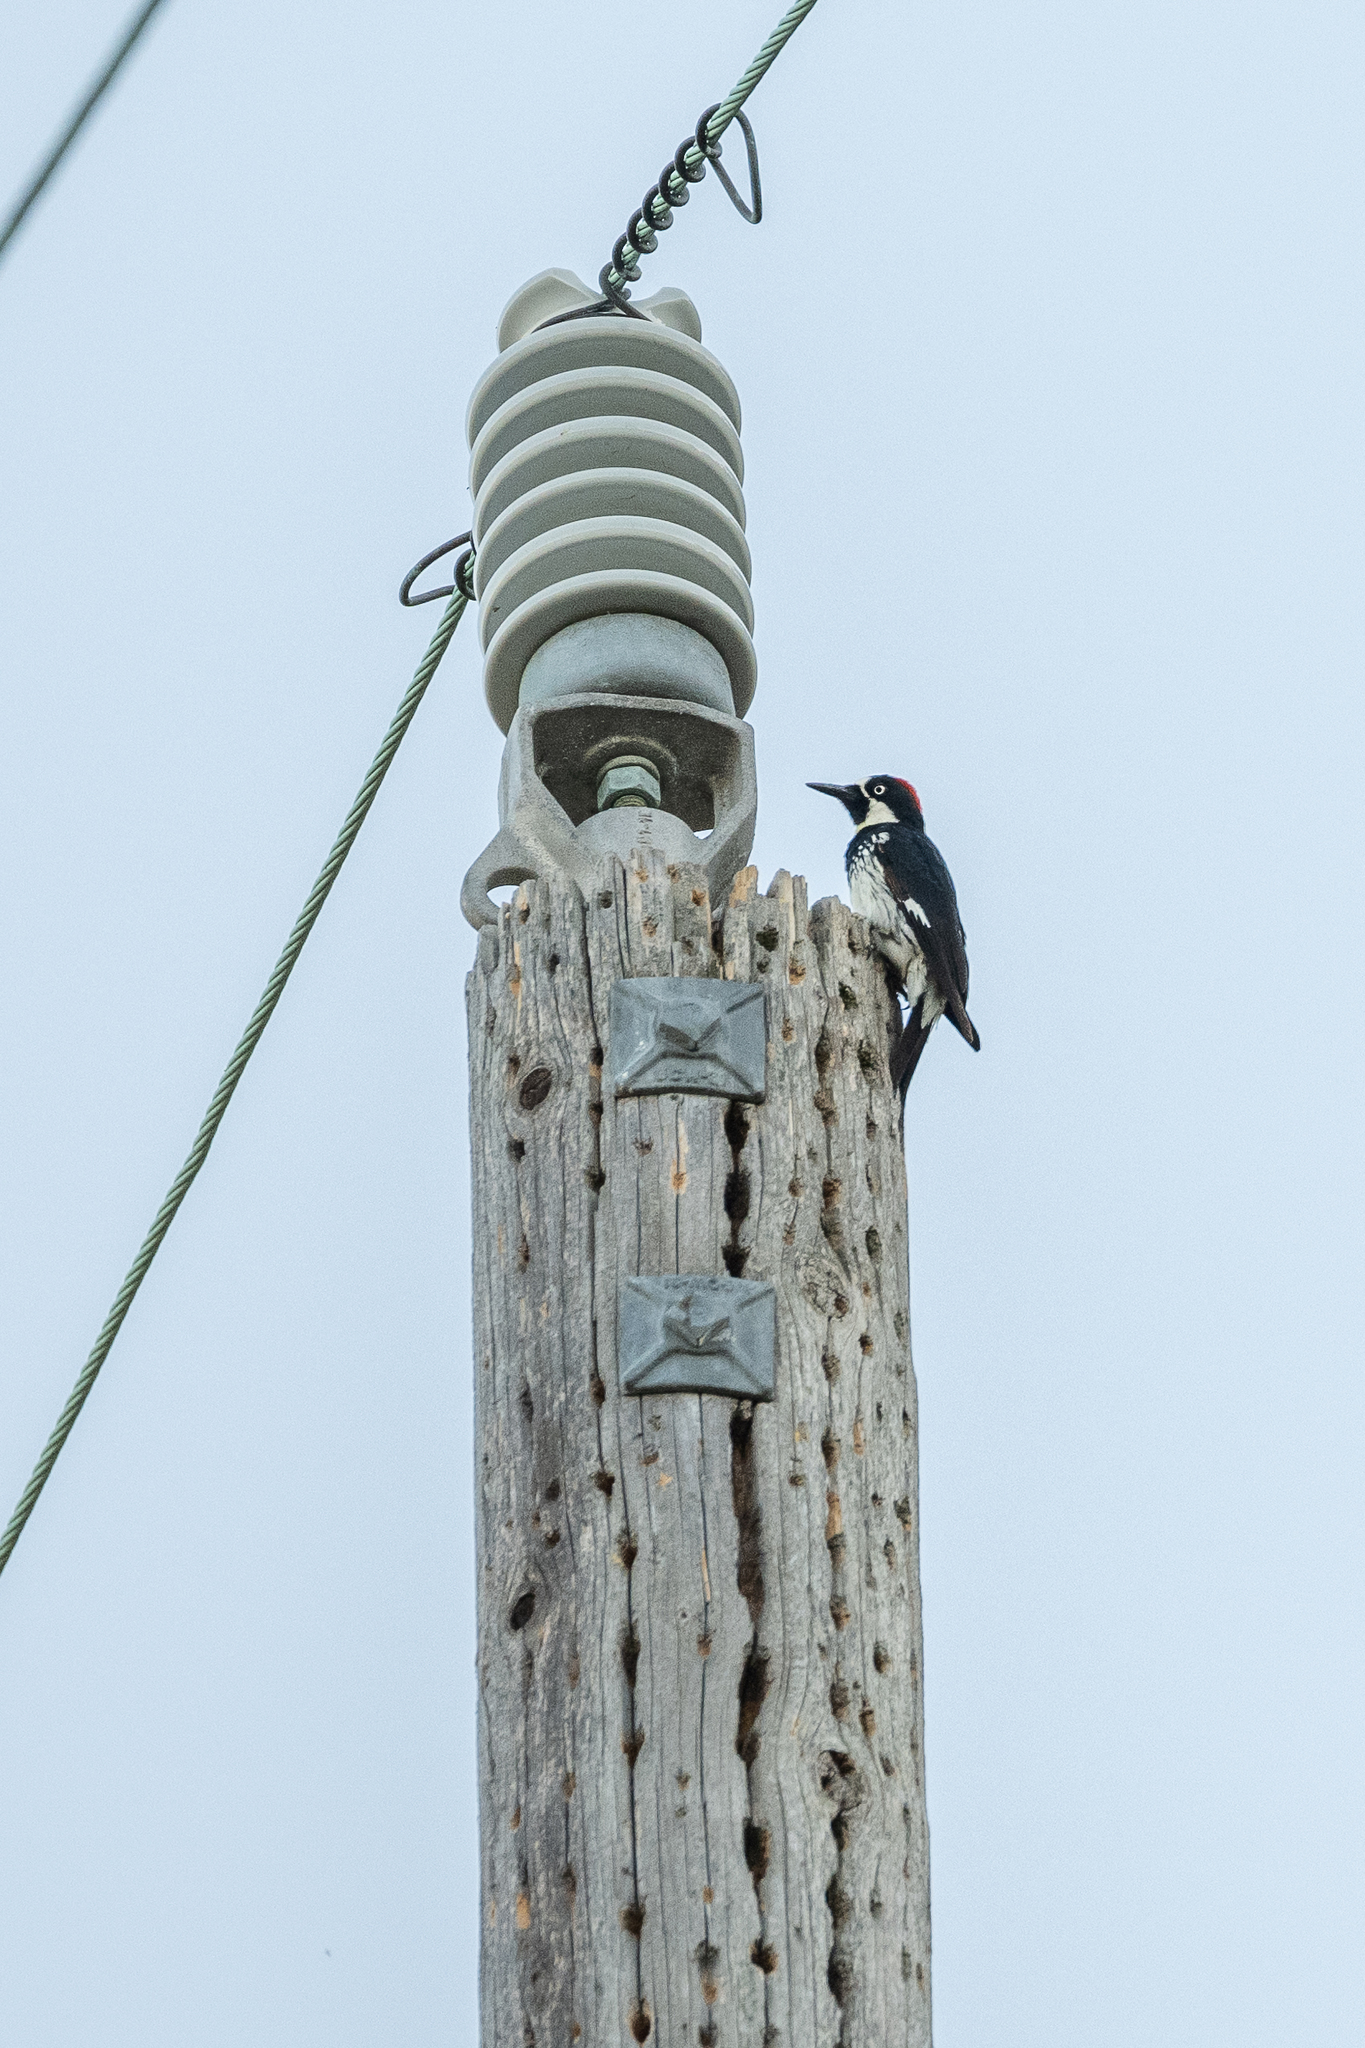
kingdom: Animalia
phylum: Chordata
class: Aves
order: Piciformes
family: Picidae
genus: Melanerpes
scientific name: Melanerpes formicivorus
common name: Acorn woodpecker
